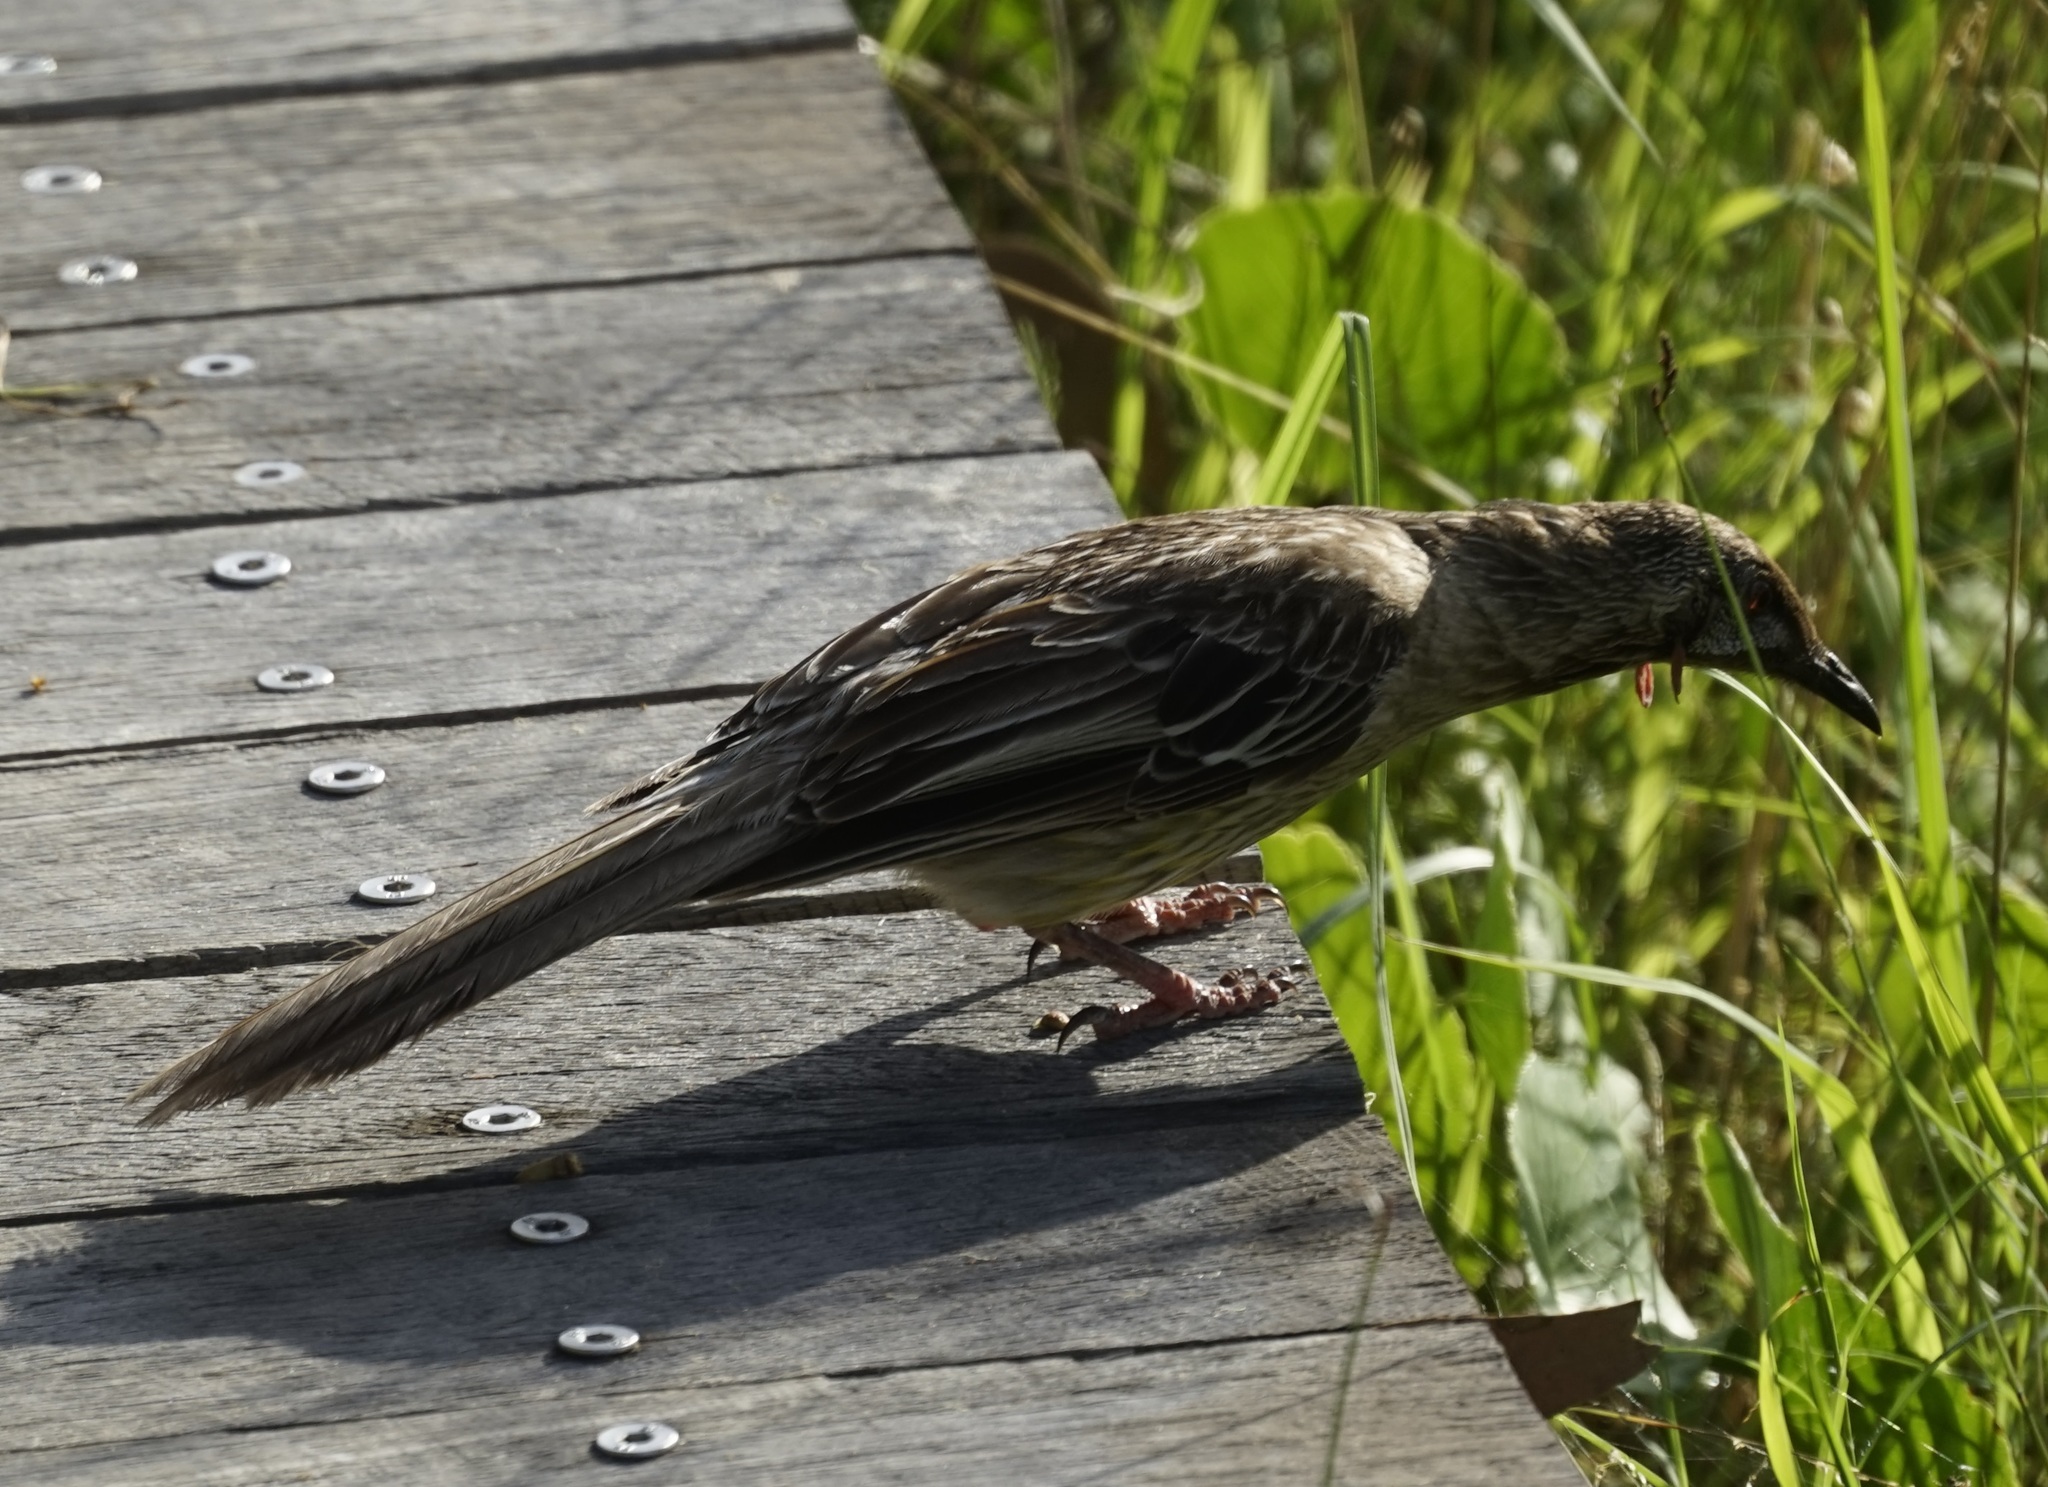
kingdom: Animalia
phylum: Chordata
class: Aves
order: Passeriformes
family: Meliphagidae
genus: Anthochaera
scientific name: Anthochaera carunculata
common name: Red wattlebird
